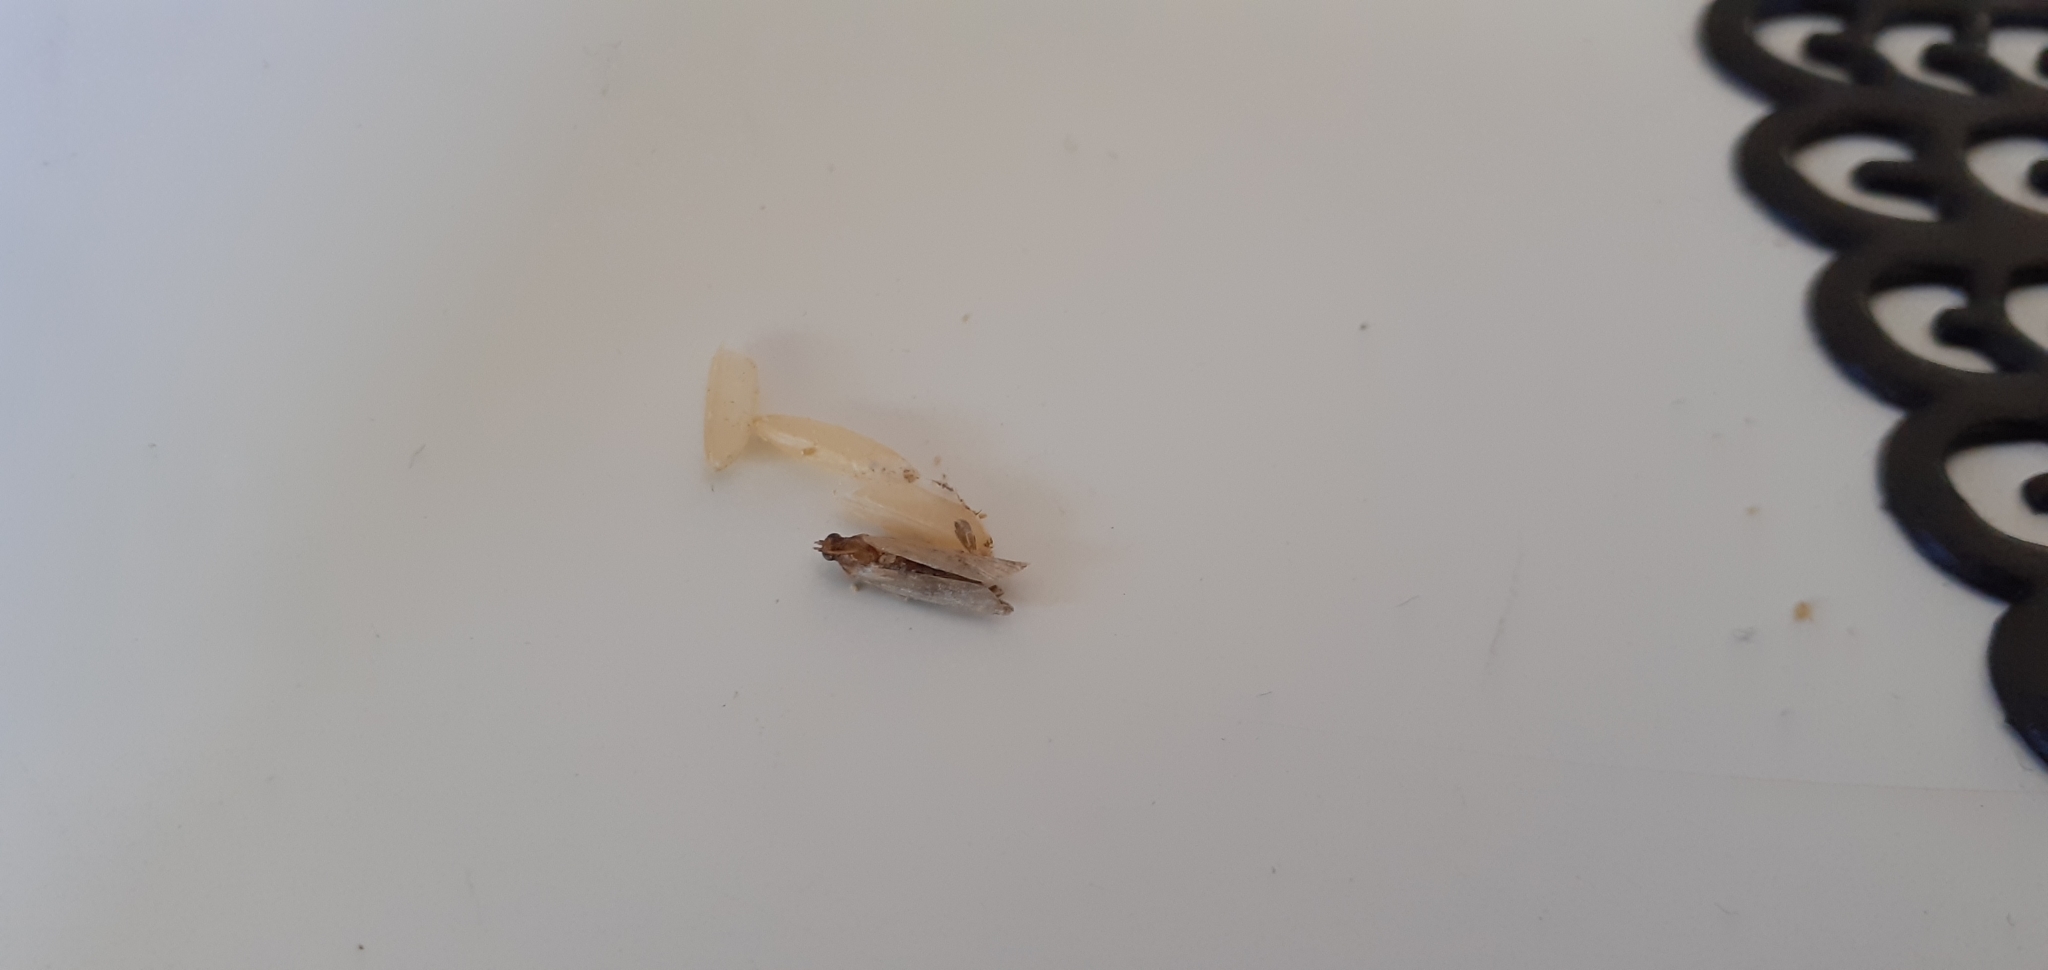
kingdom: Animalia
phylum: Arthropoda
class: Insecta
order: Lepidoptera
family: Pyralidae
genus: Plodia
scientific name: Plodia interpunctella
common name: Indian meal moth
